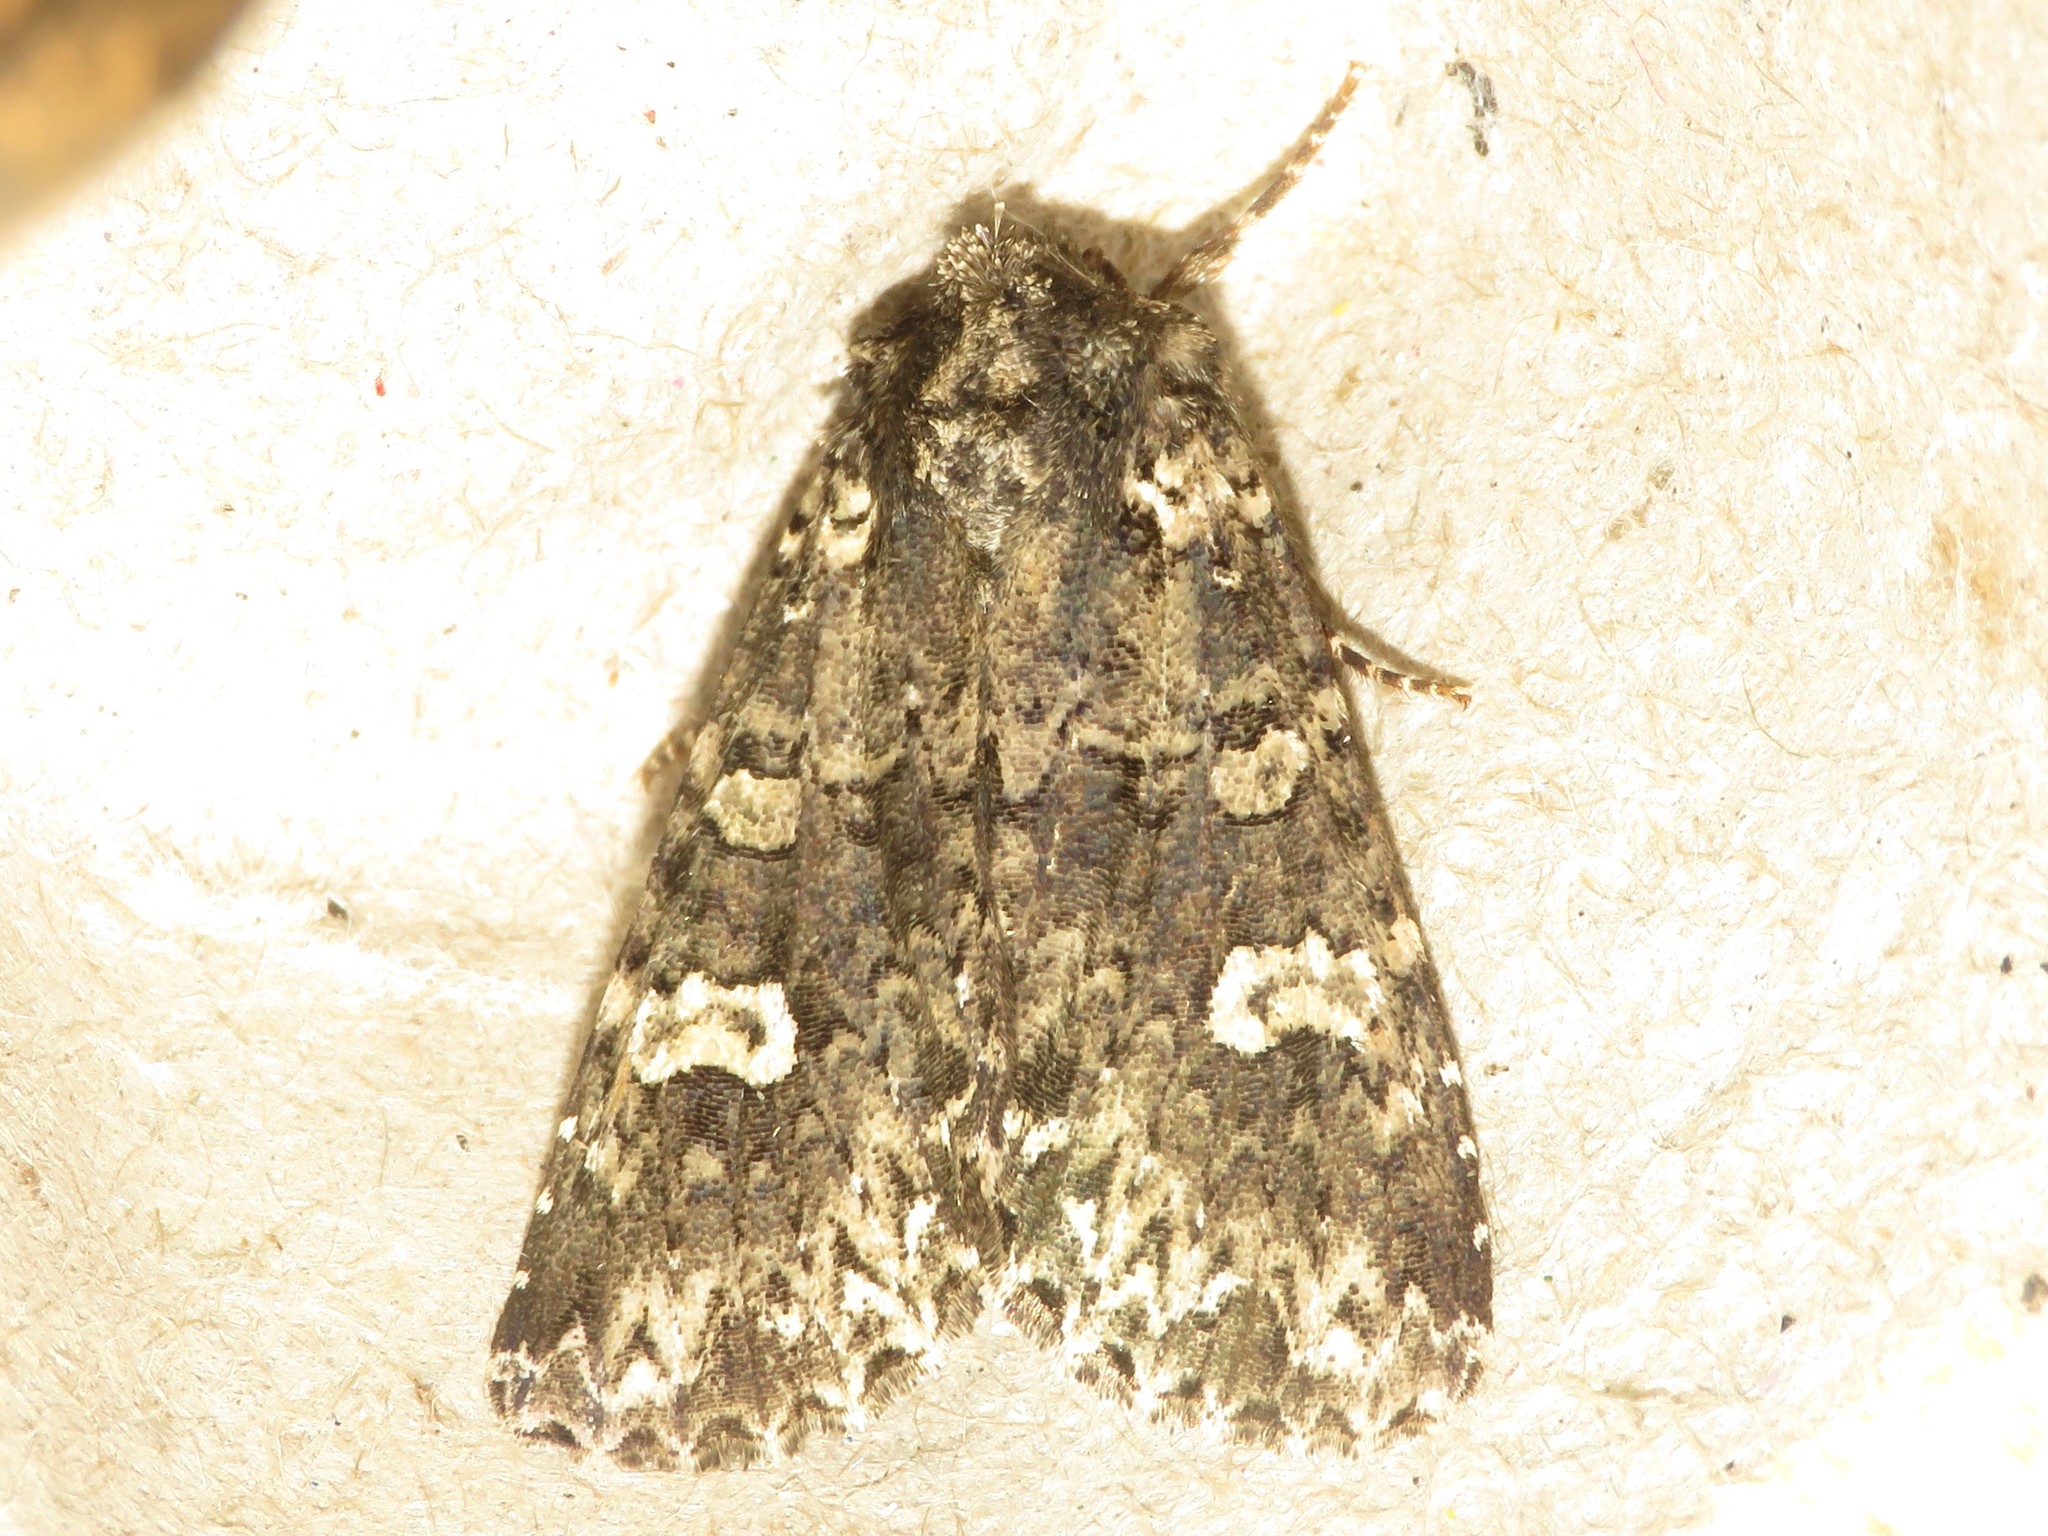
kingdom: Animalia
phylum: Arthropoda
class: Insecta
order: Lepidoptera
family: Noctuidae
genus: Melanchra
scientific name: Melanchra adjuncta
